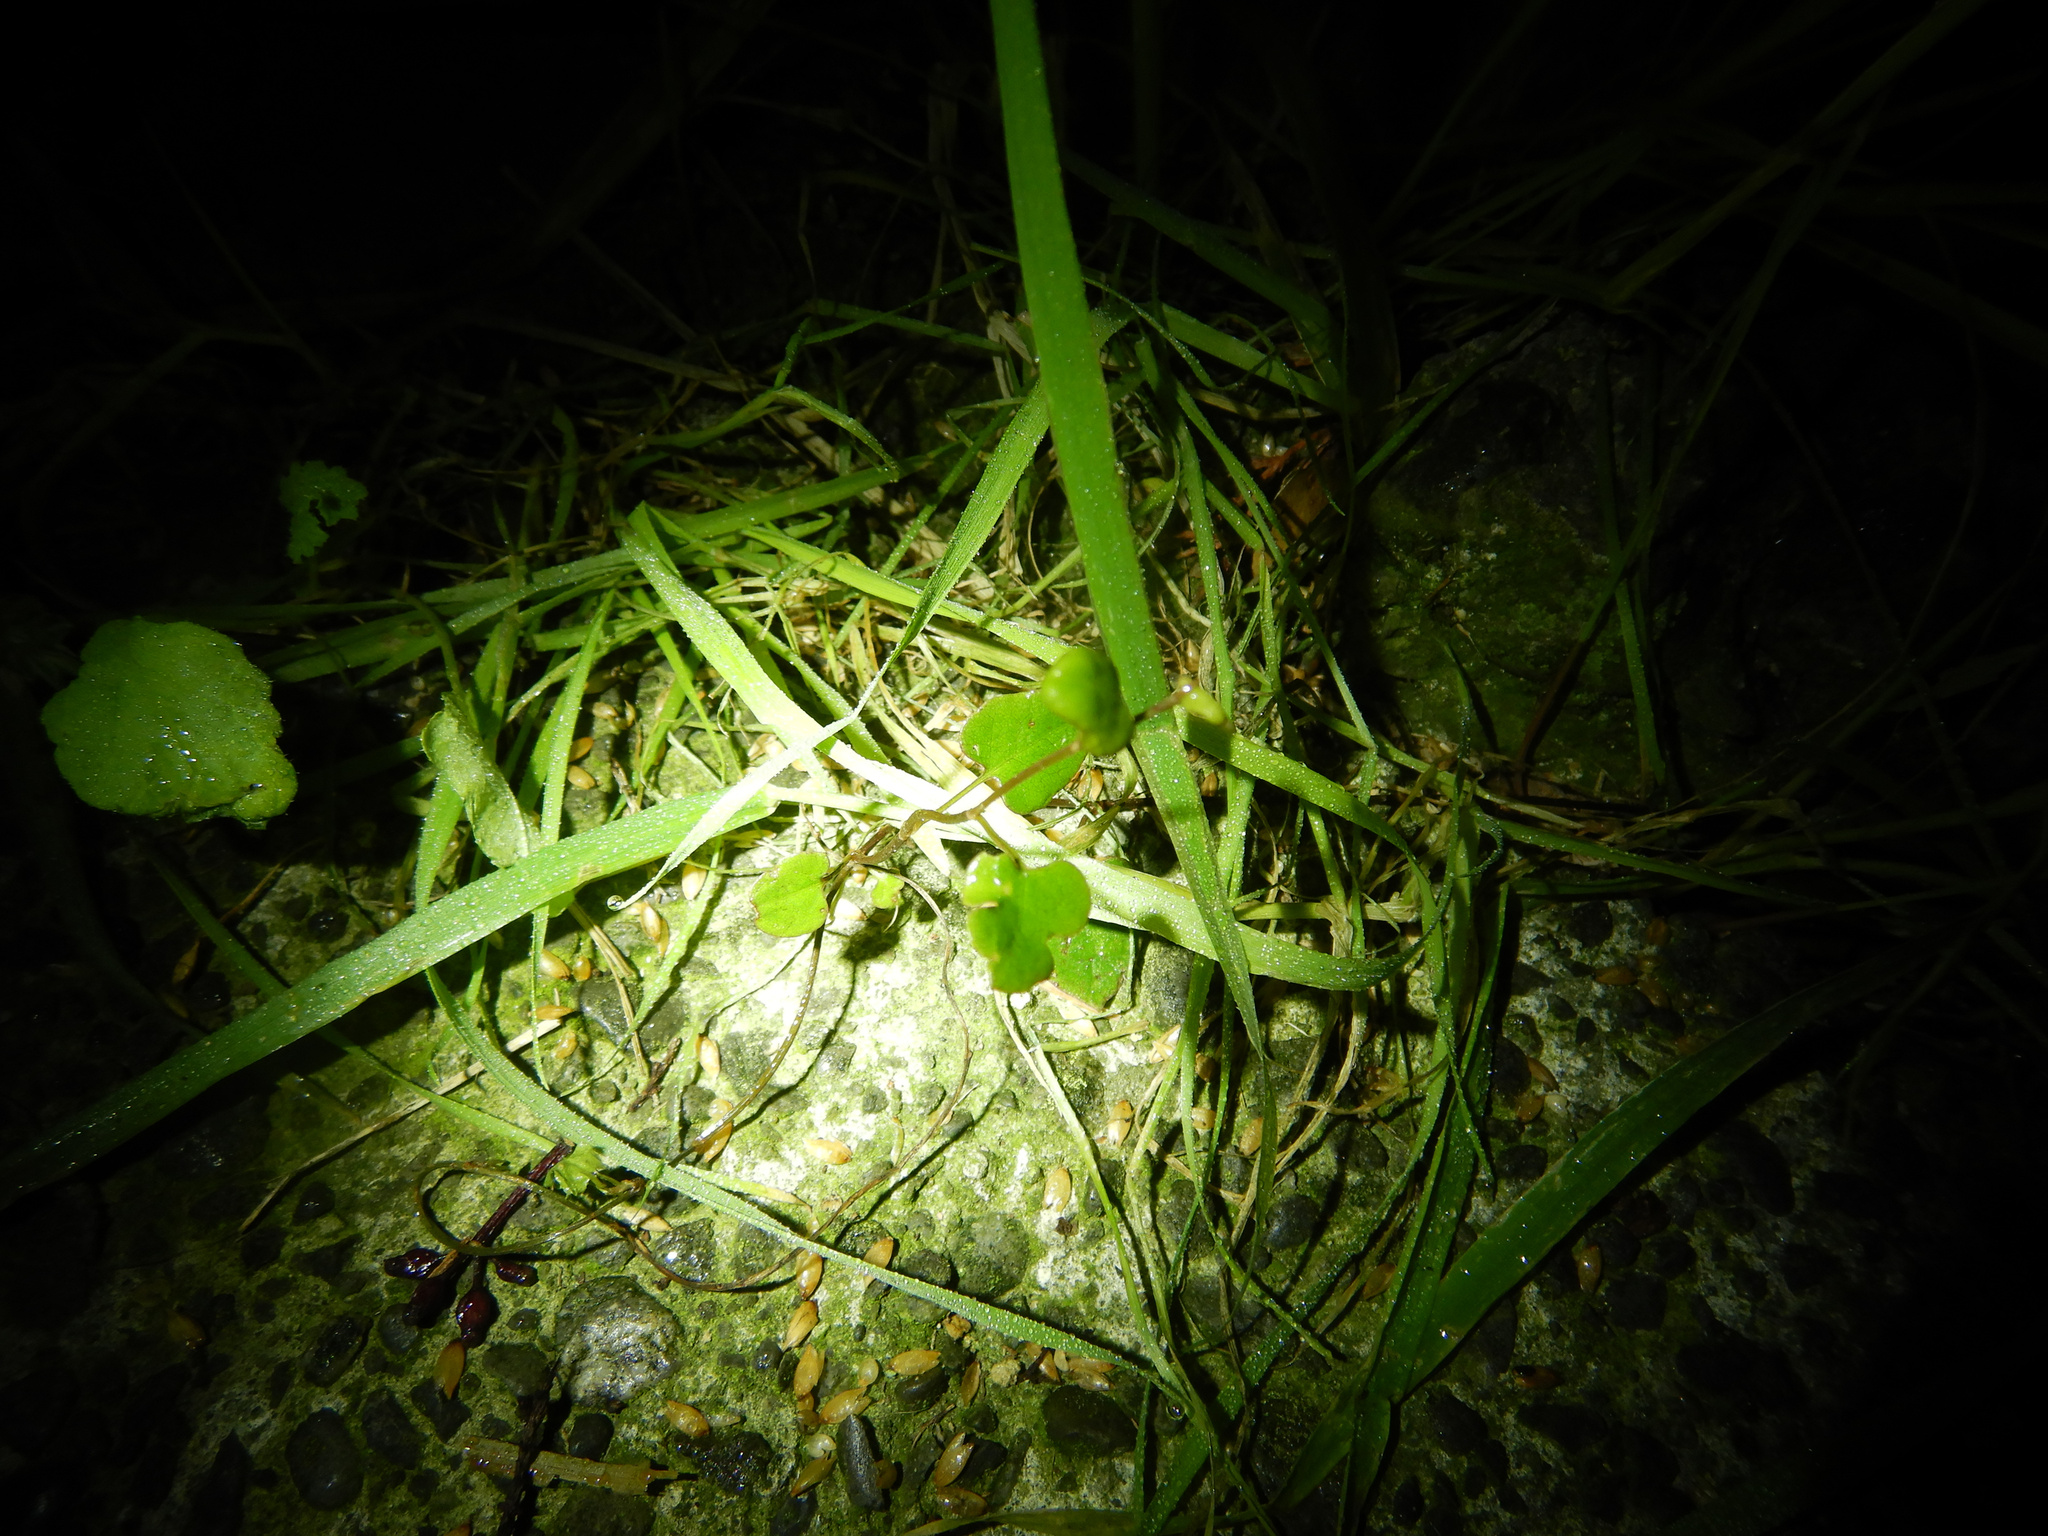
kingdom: Plantae
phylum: Tracheophyta
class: Magnoliopsida
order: Caryophyllales
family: Polygonaceae
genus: Muehlenbeckia
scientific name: Muehlenbeckia australis
